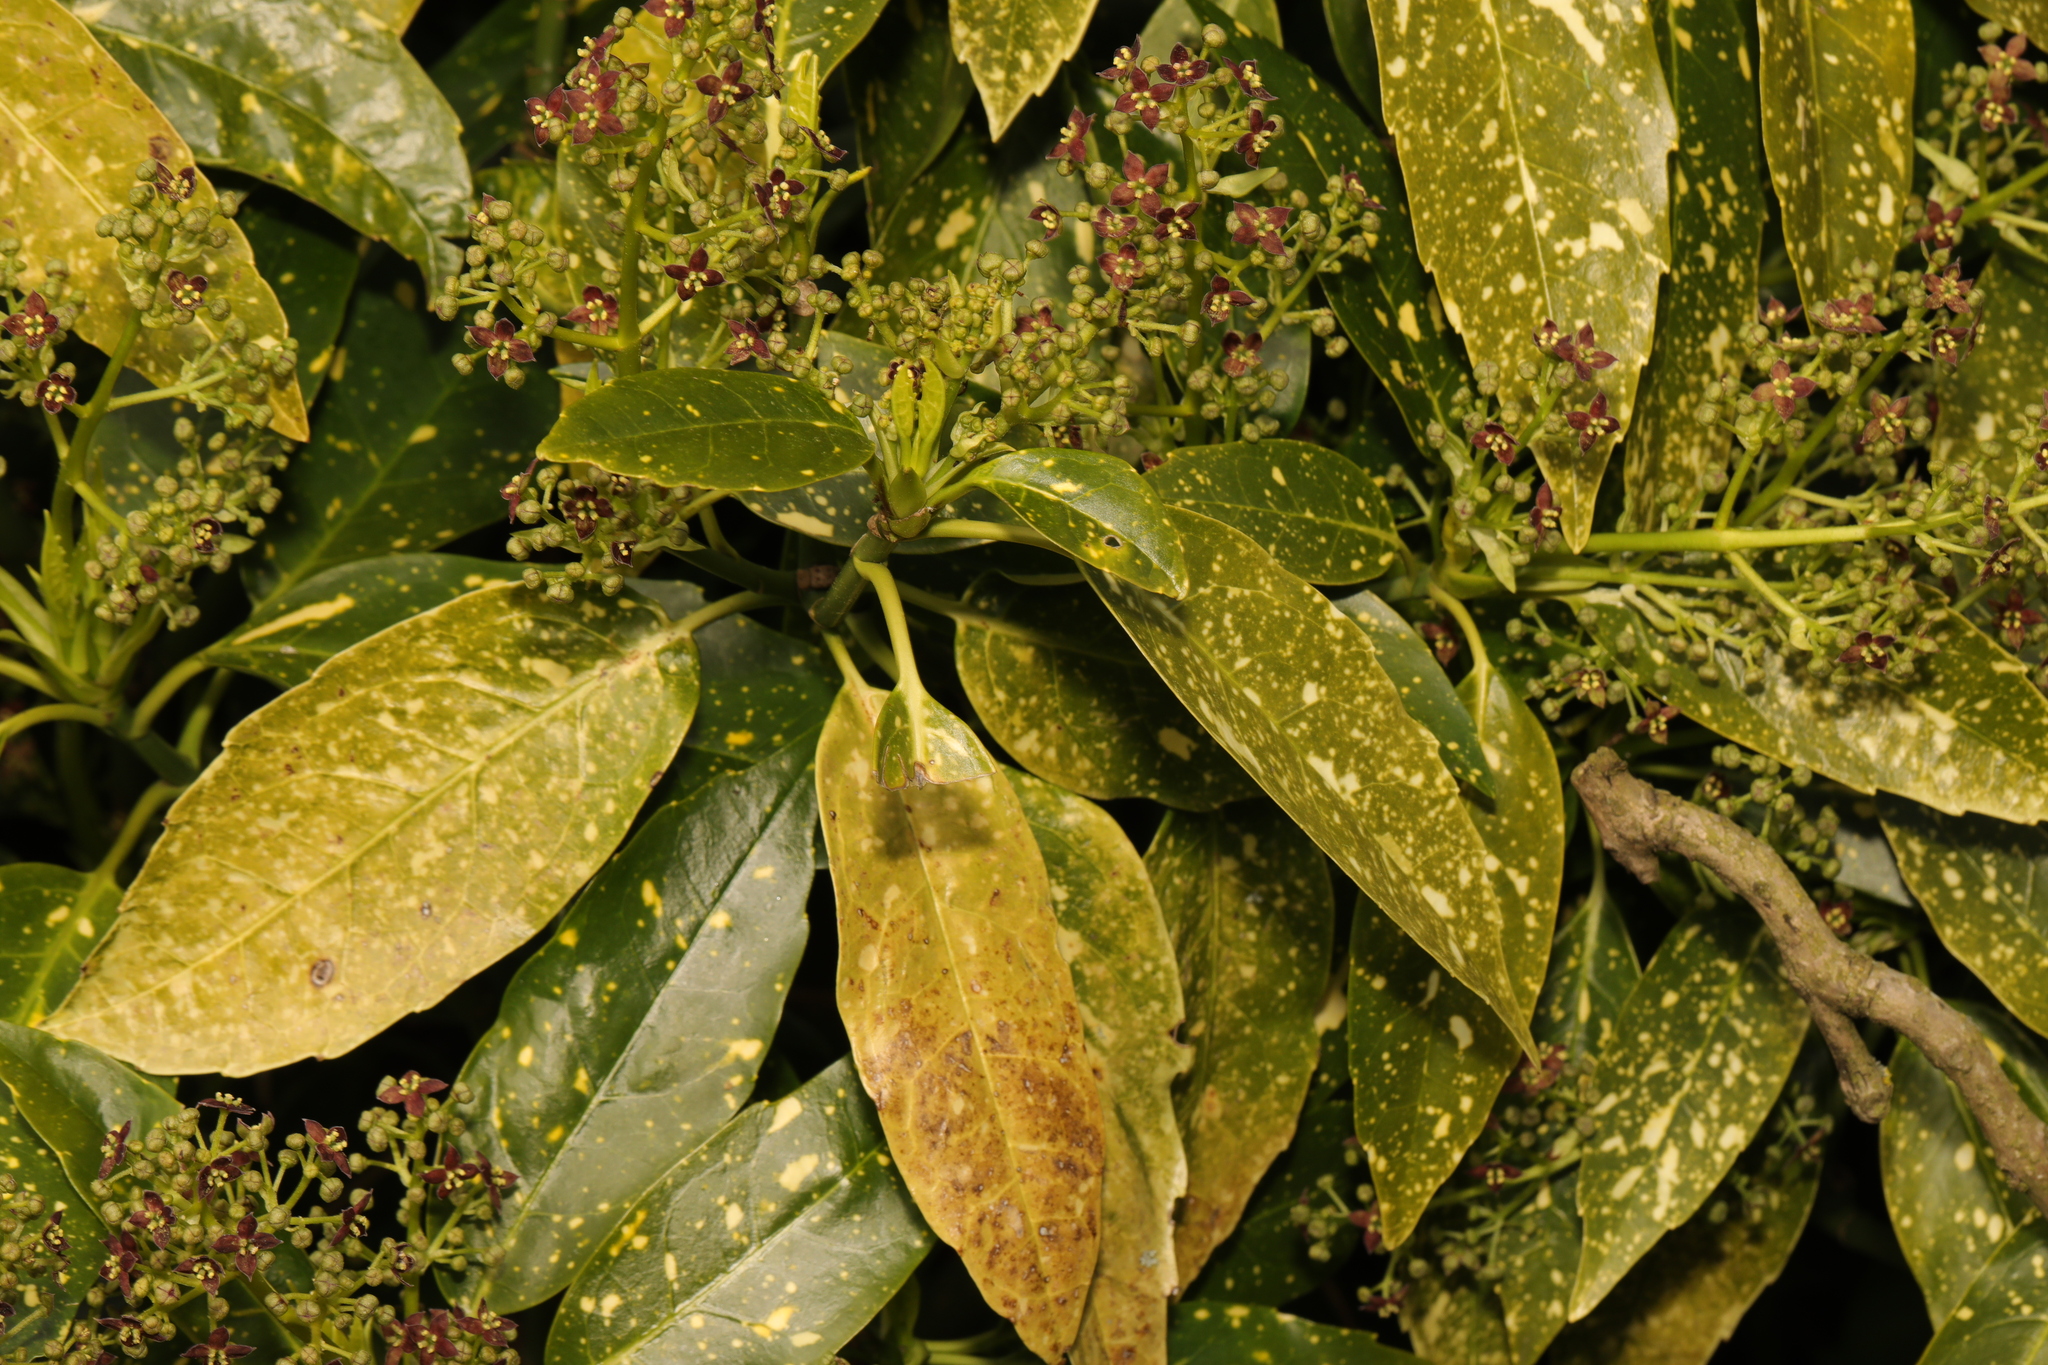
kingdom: Plantae
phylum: Tracheophyta
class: Magnoliopsida
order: Garryales
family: Garryaceae
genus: Aucuba
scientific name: Aucuba japonica
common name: Spotted-laurel
